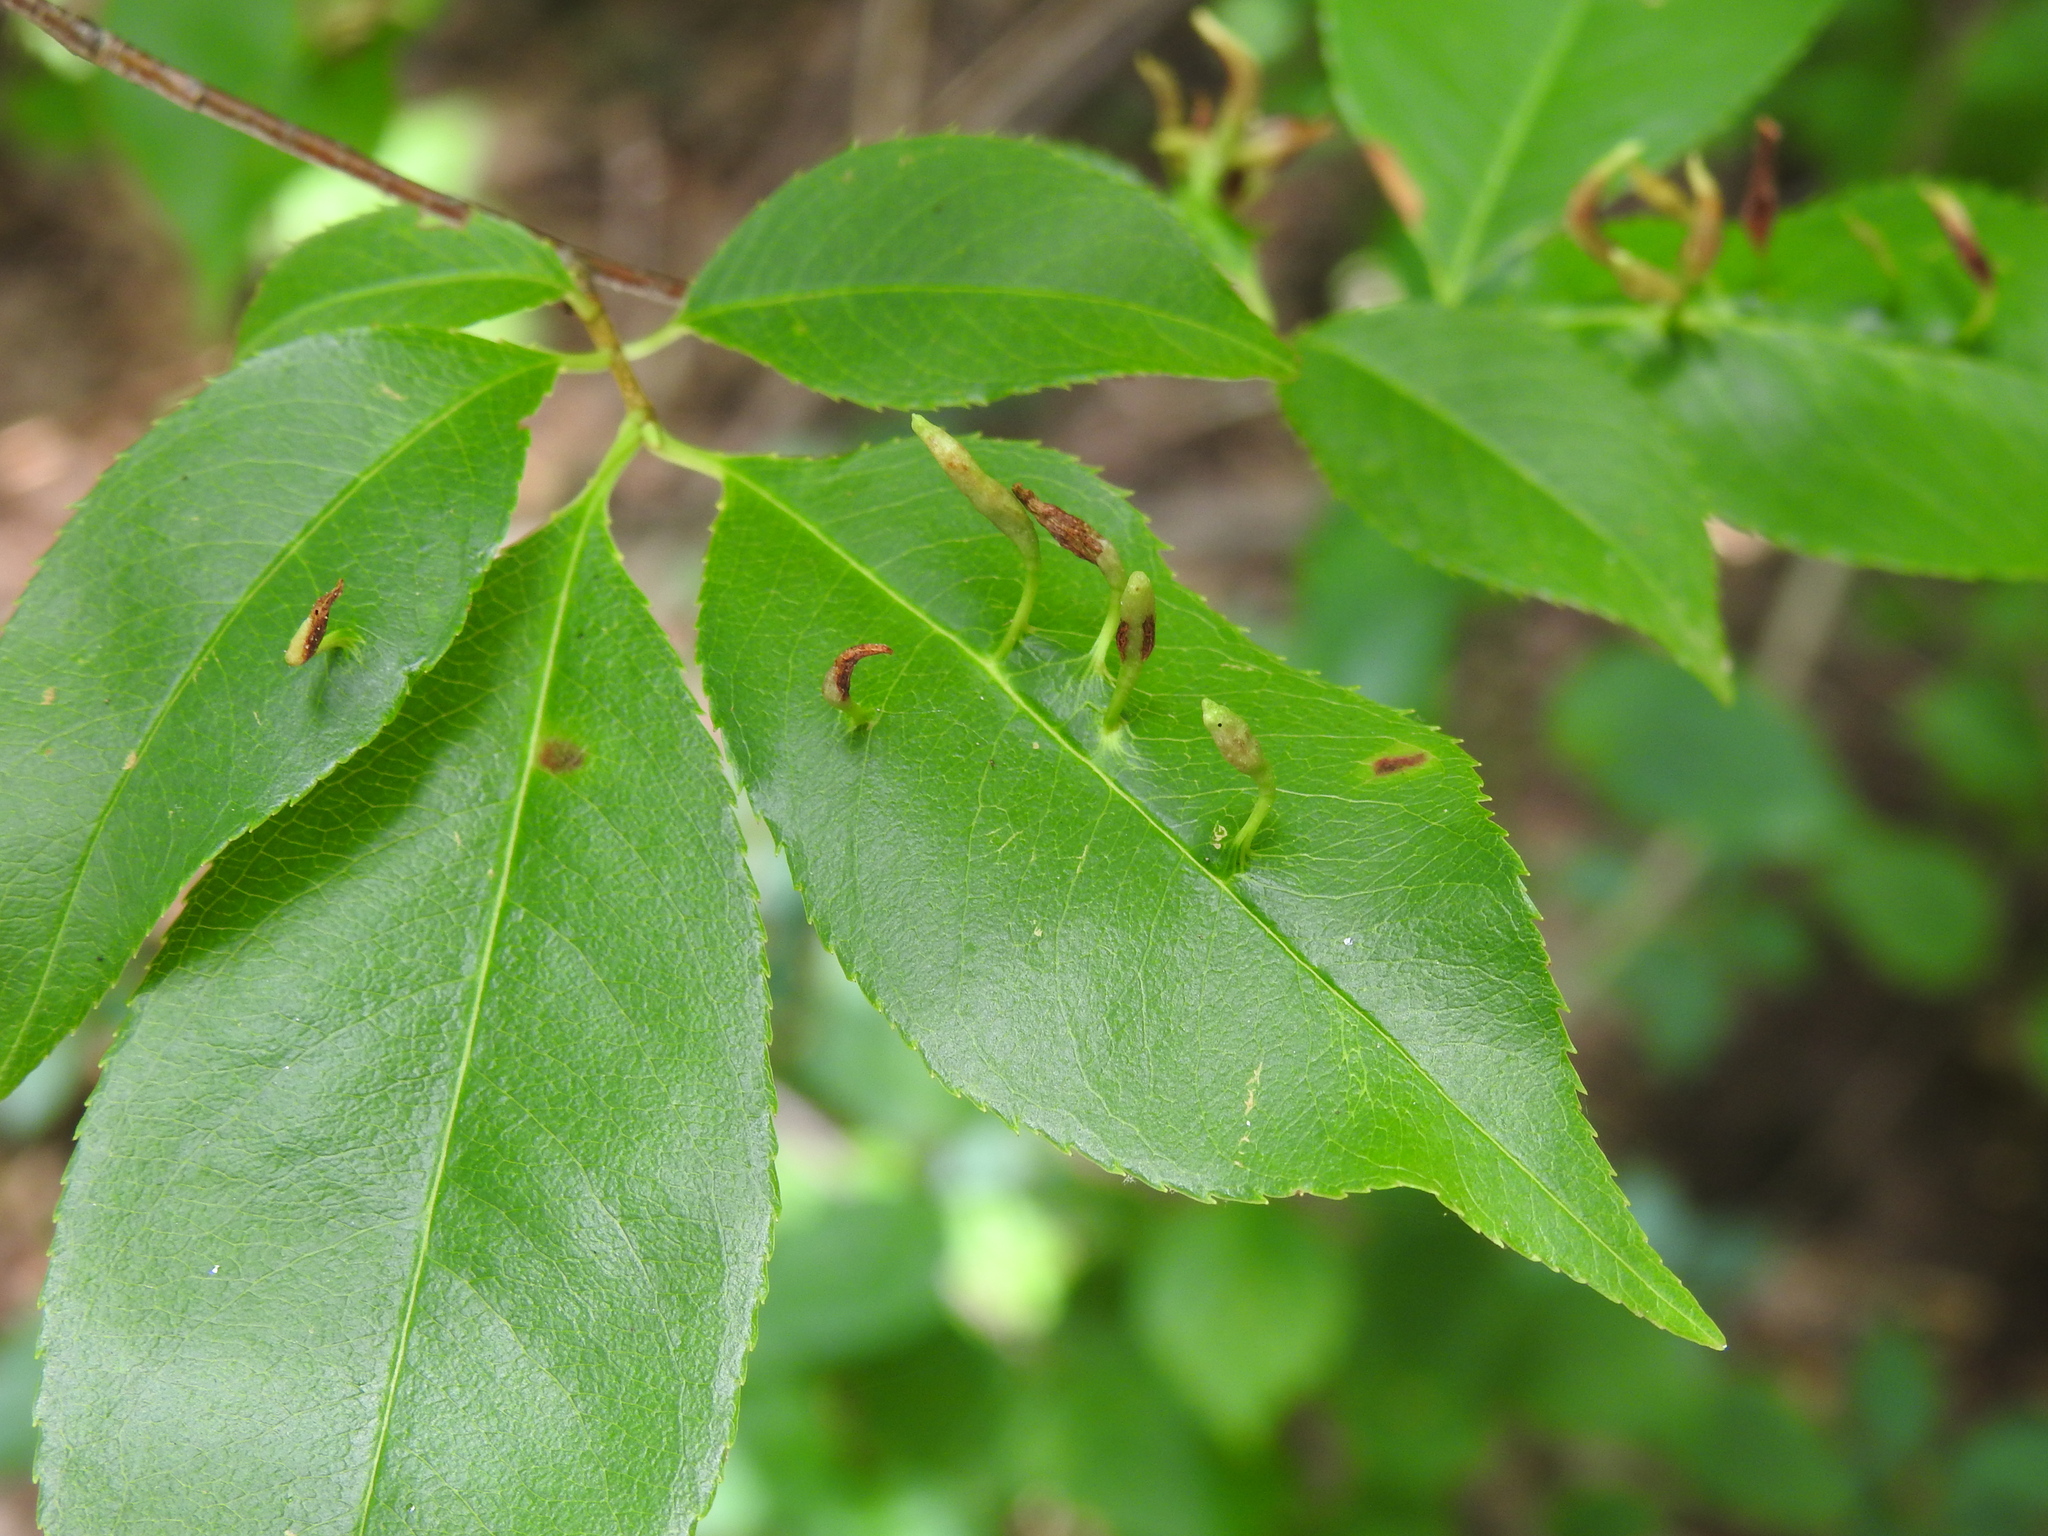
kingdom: Animalia
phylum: Arthropoda
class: Arachnida
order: Trombidiformes
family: Eriophyidae
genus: Eriophyes
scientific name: Eriophyes
